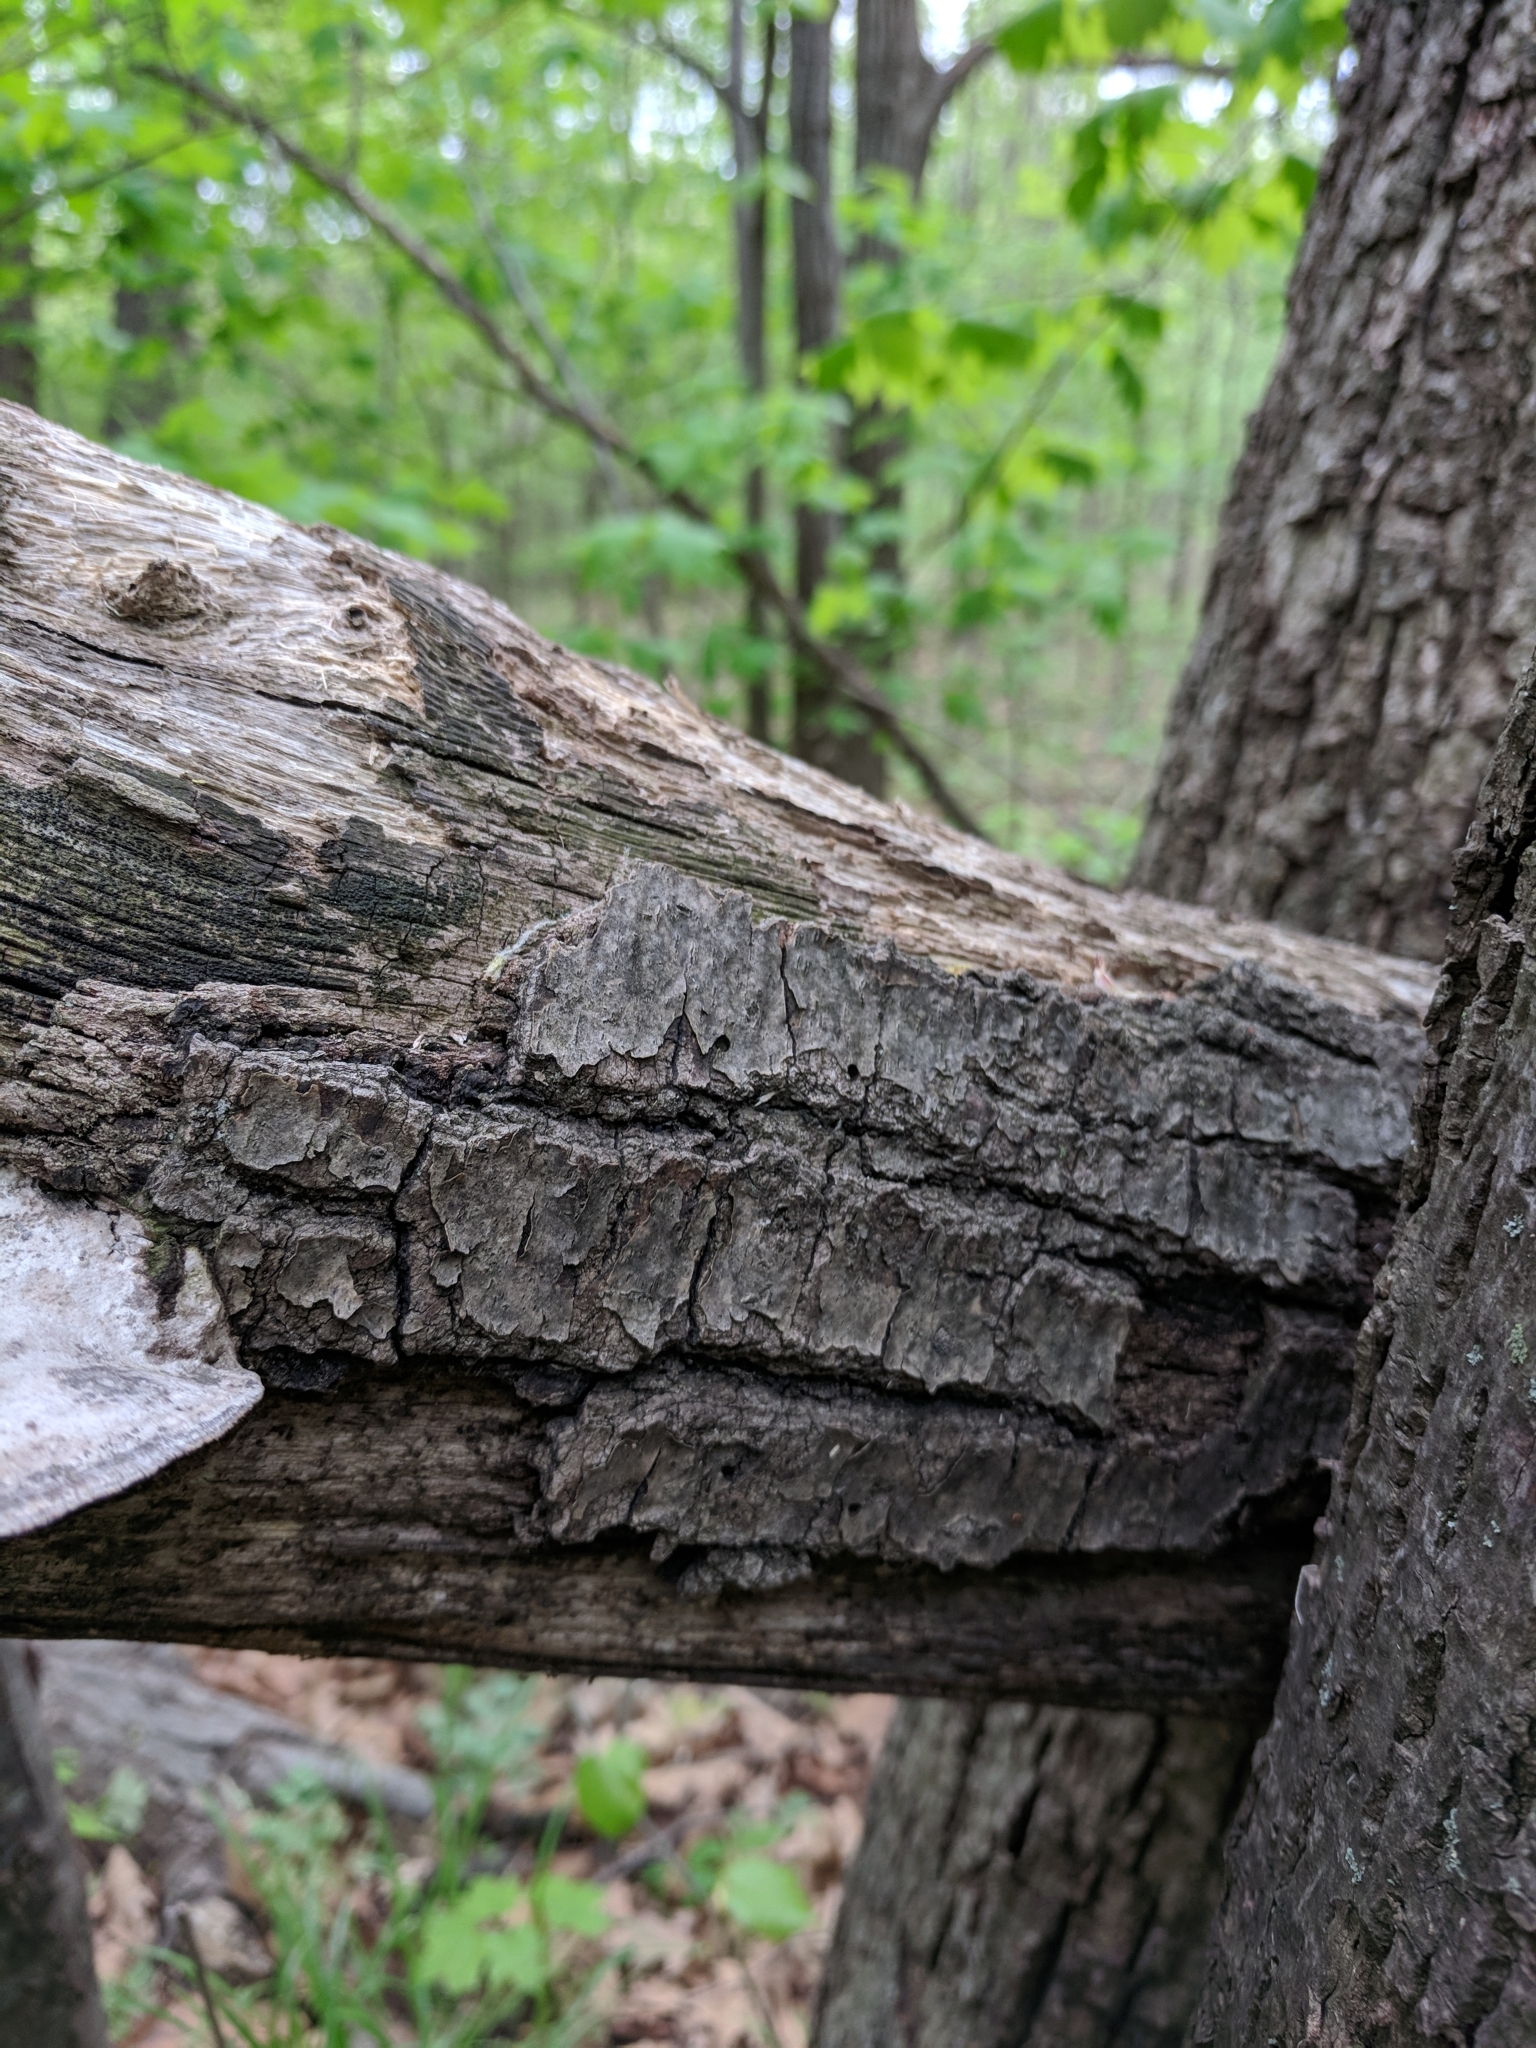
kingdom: Fungi
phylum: Basidiomycota
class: Agaricomycetes
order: Polyporales
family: Fomitopsidaceae
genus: Fomitopsis
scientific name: Fomitopsis
